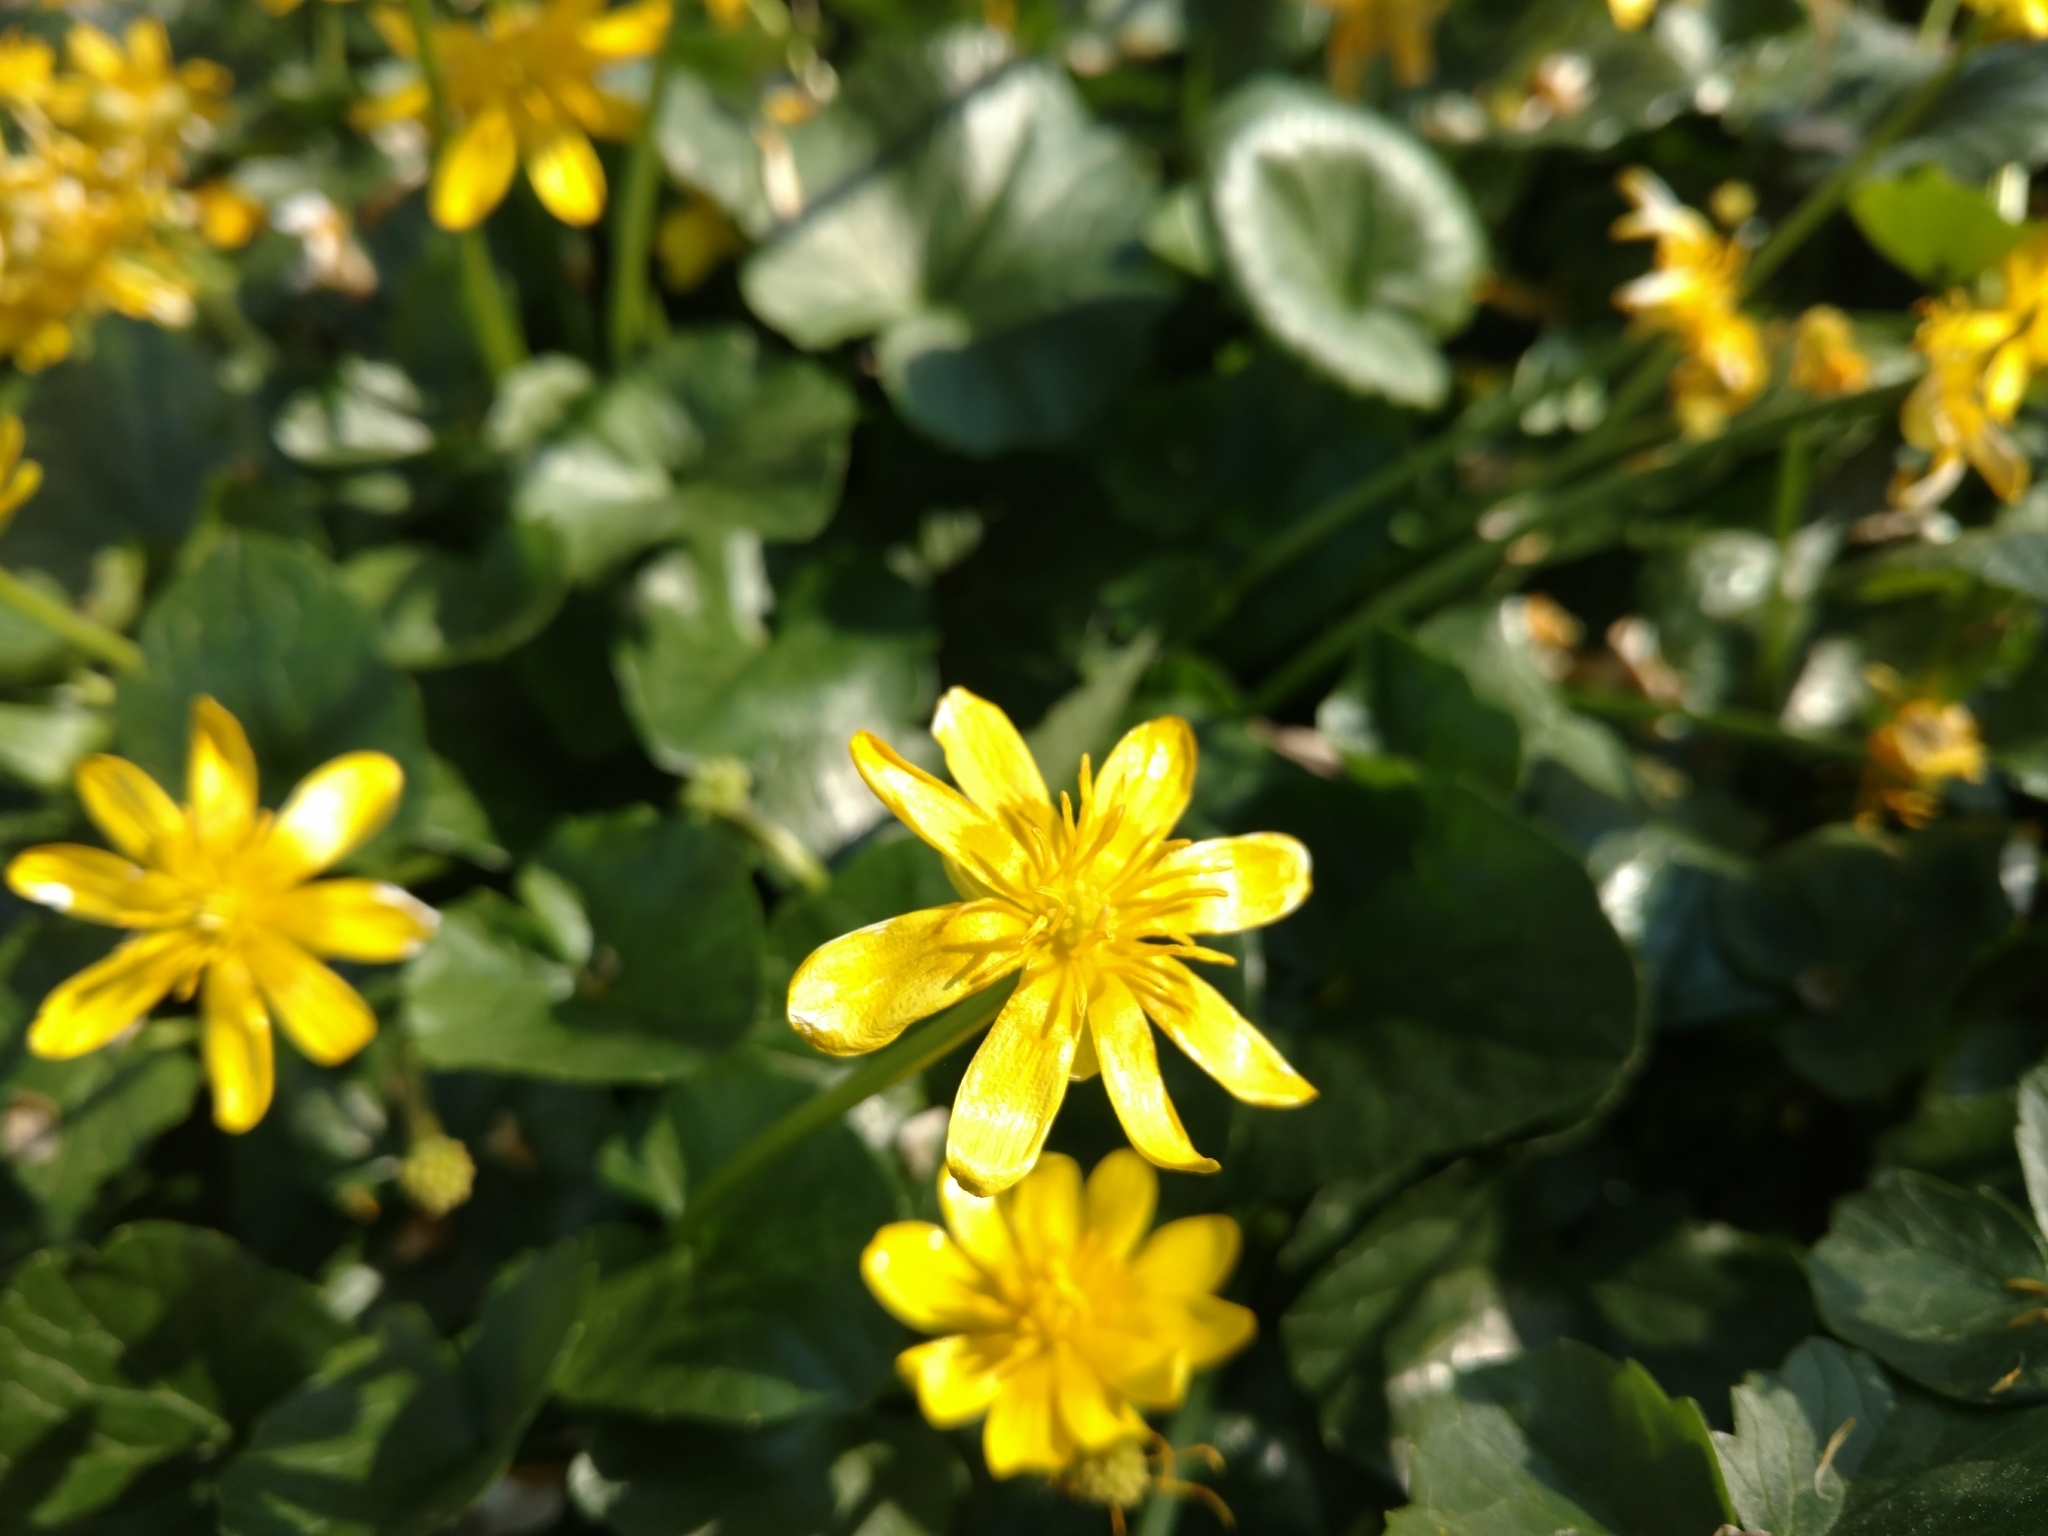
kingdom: Plantae
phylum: Tracheophyta
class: Magnoliopsida
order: Ranunculales
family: Ranunculaceae
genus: Ficaria
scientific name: Ficaria verna
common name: Lesser celandine
